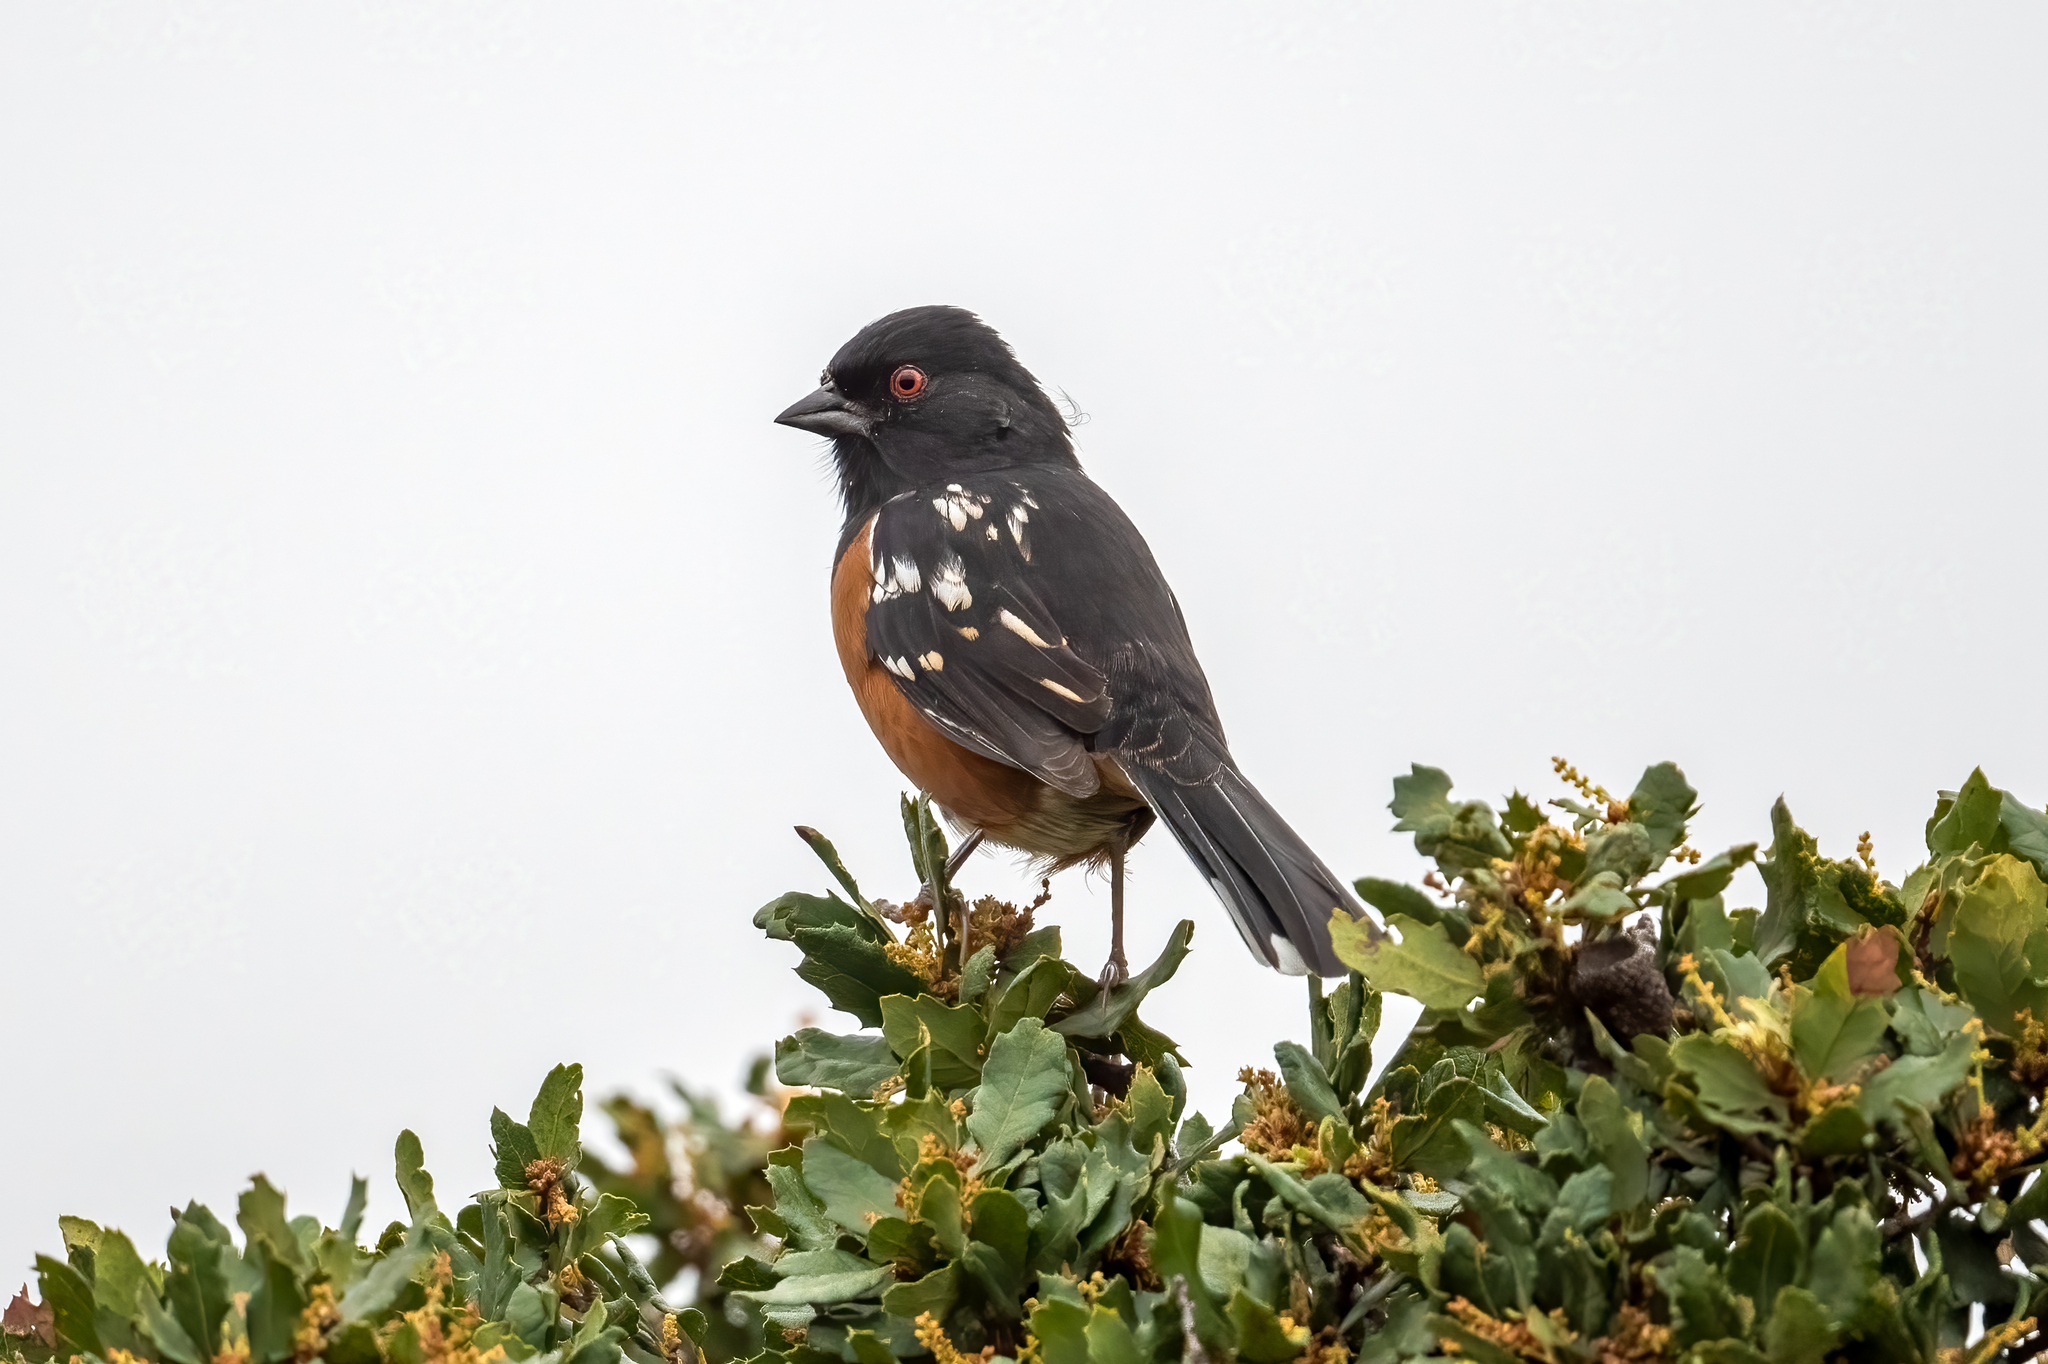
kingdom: Animalia
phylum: Chordata
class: Aves
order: Passeriformes
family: Passerellidae
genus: Pipilo
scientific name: Pipilo maculatus
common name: Spotted towhee
